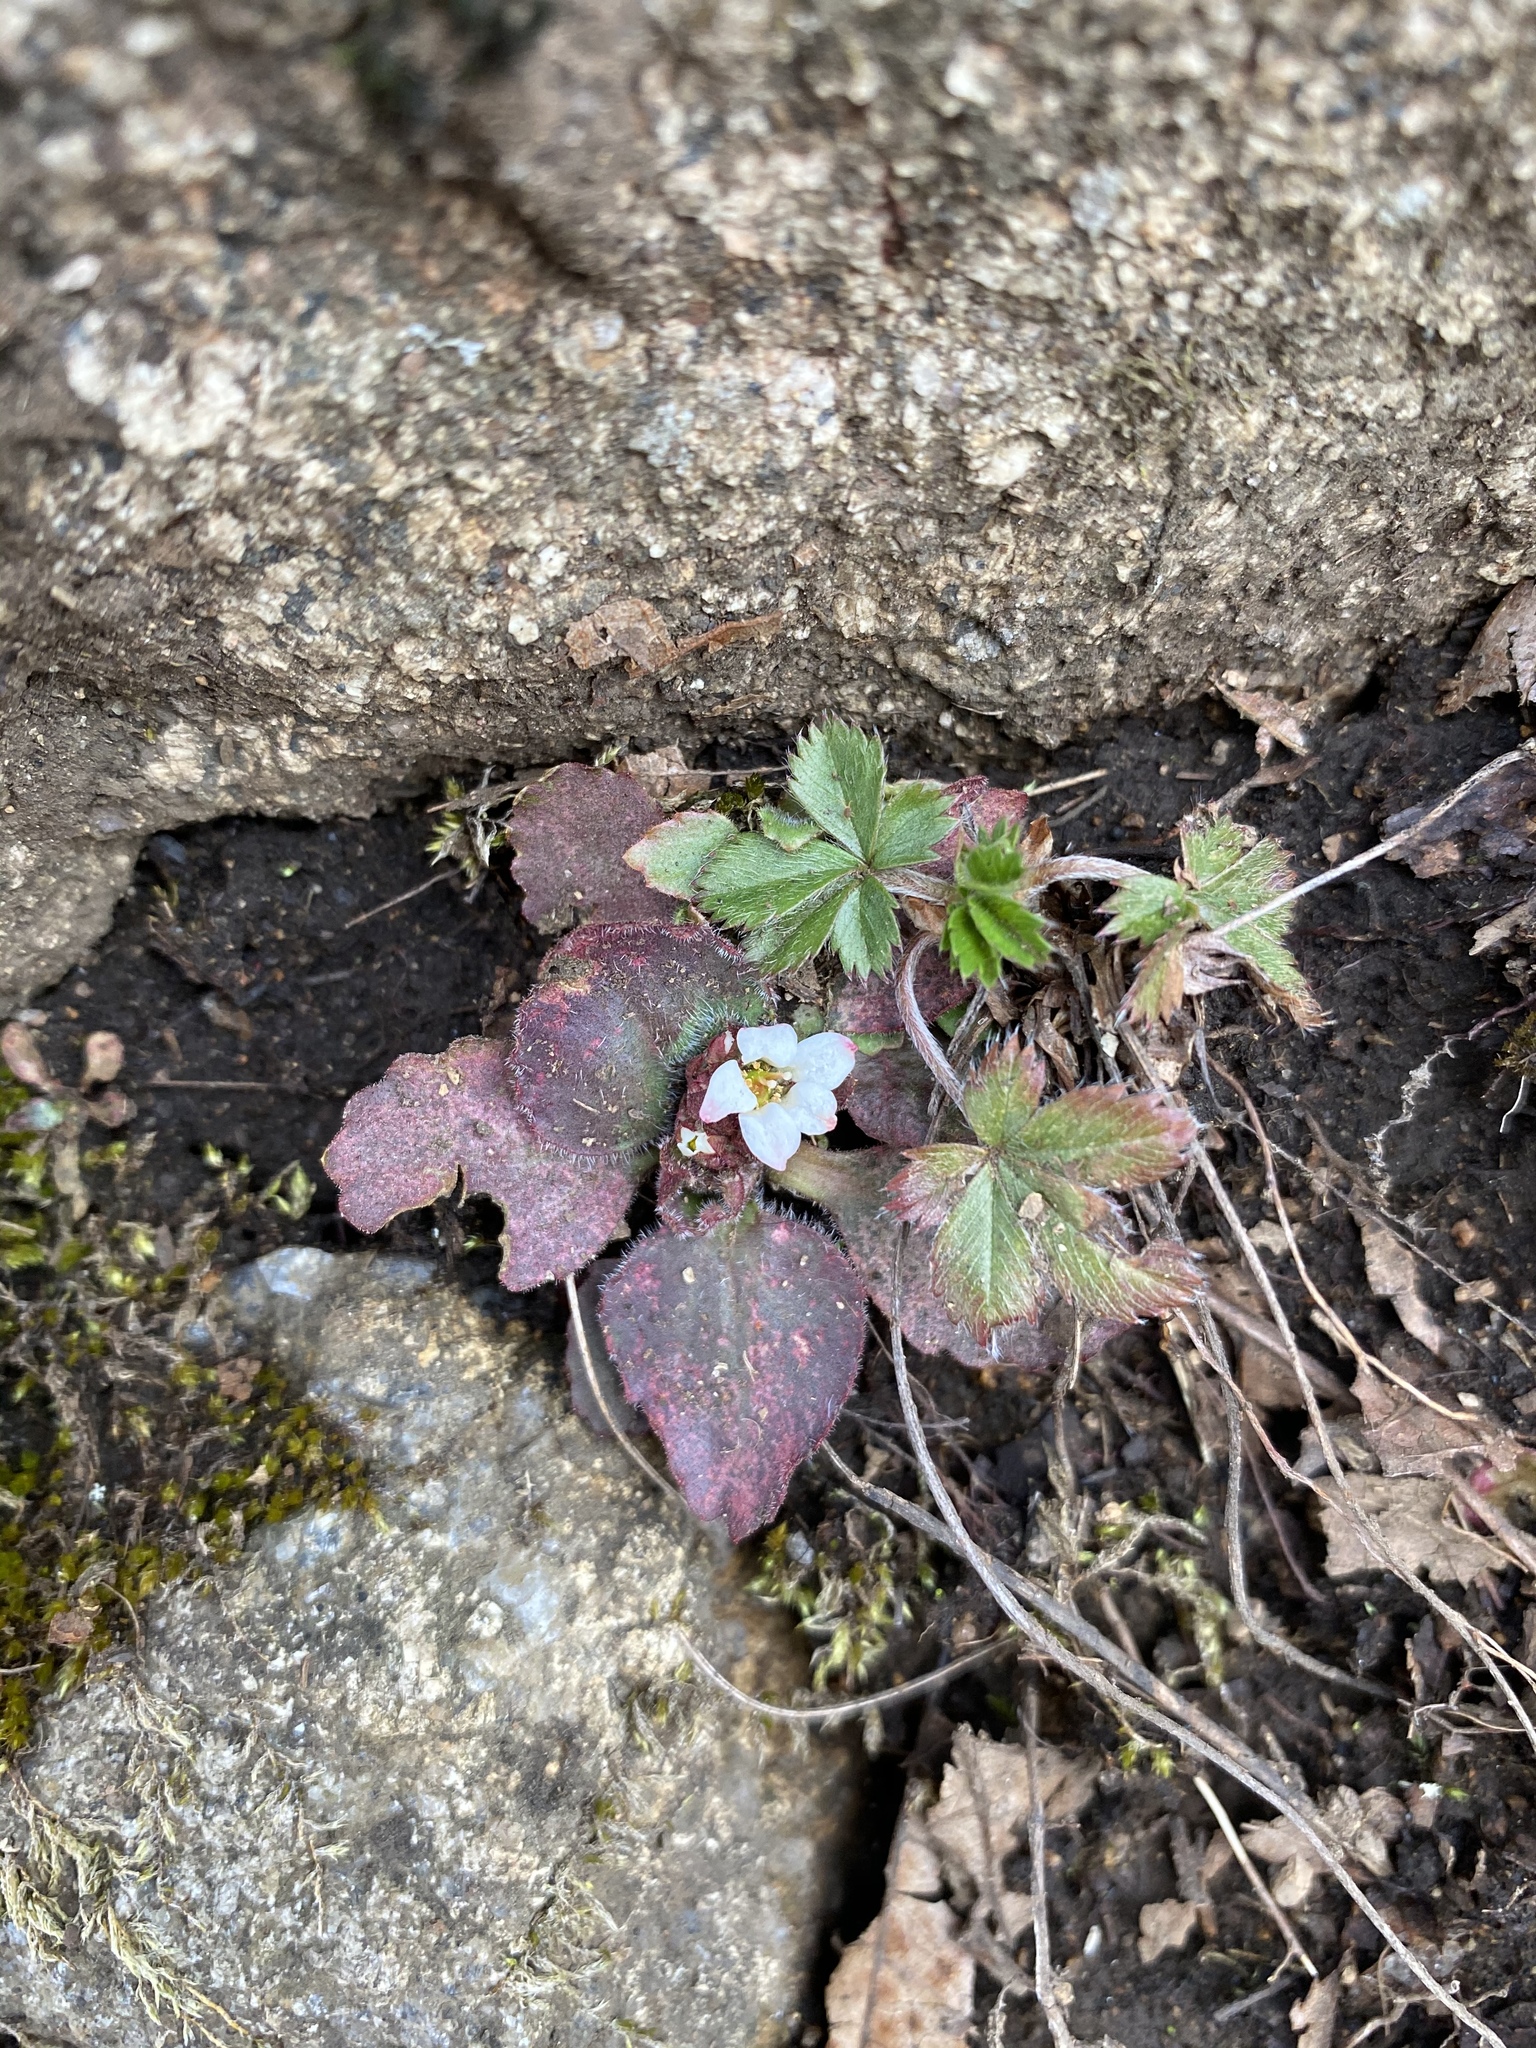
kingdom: Plantae
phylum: Tracheophyta
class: Magnoliopsida
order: Saxifragales
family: Saxifragaceae
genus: Micranthes
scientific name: Micranthes virginiensis
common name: Early saxifrage
